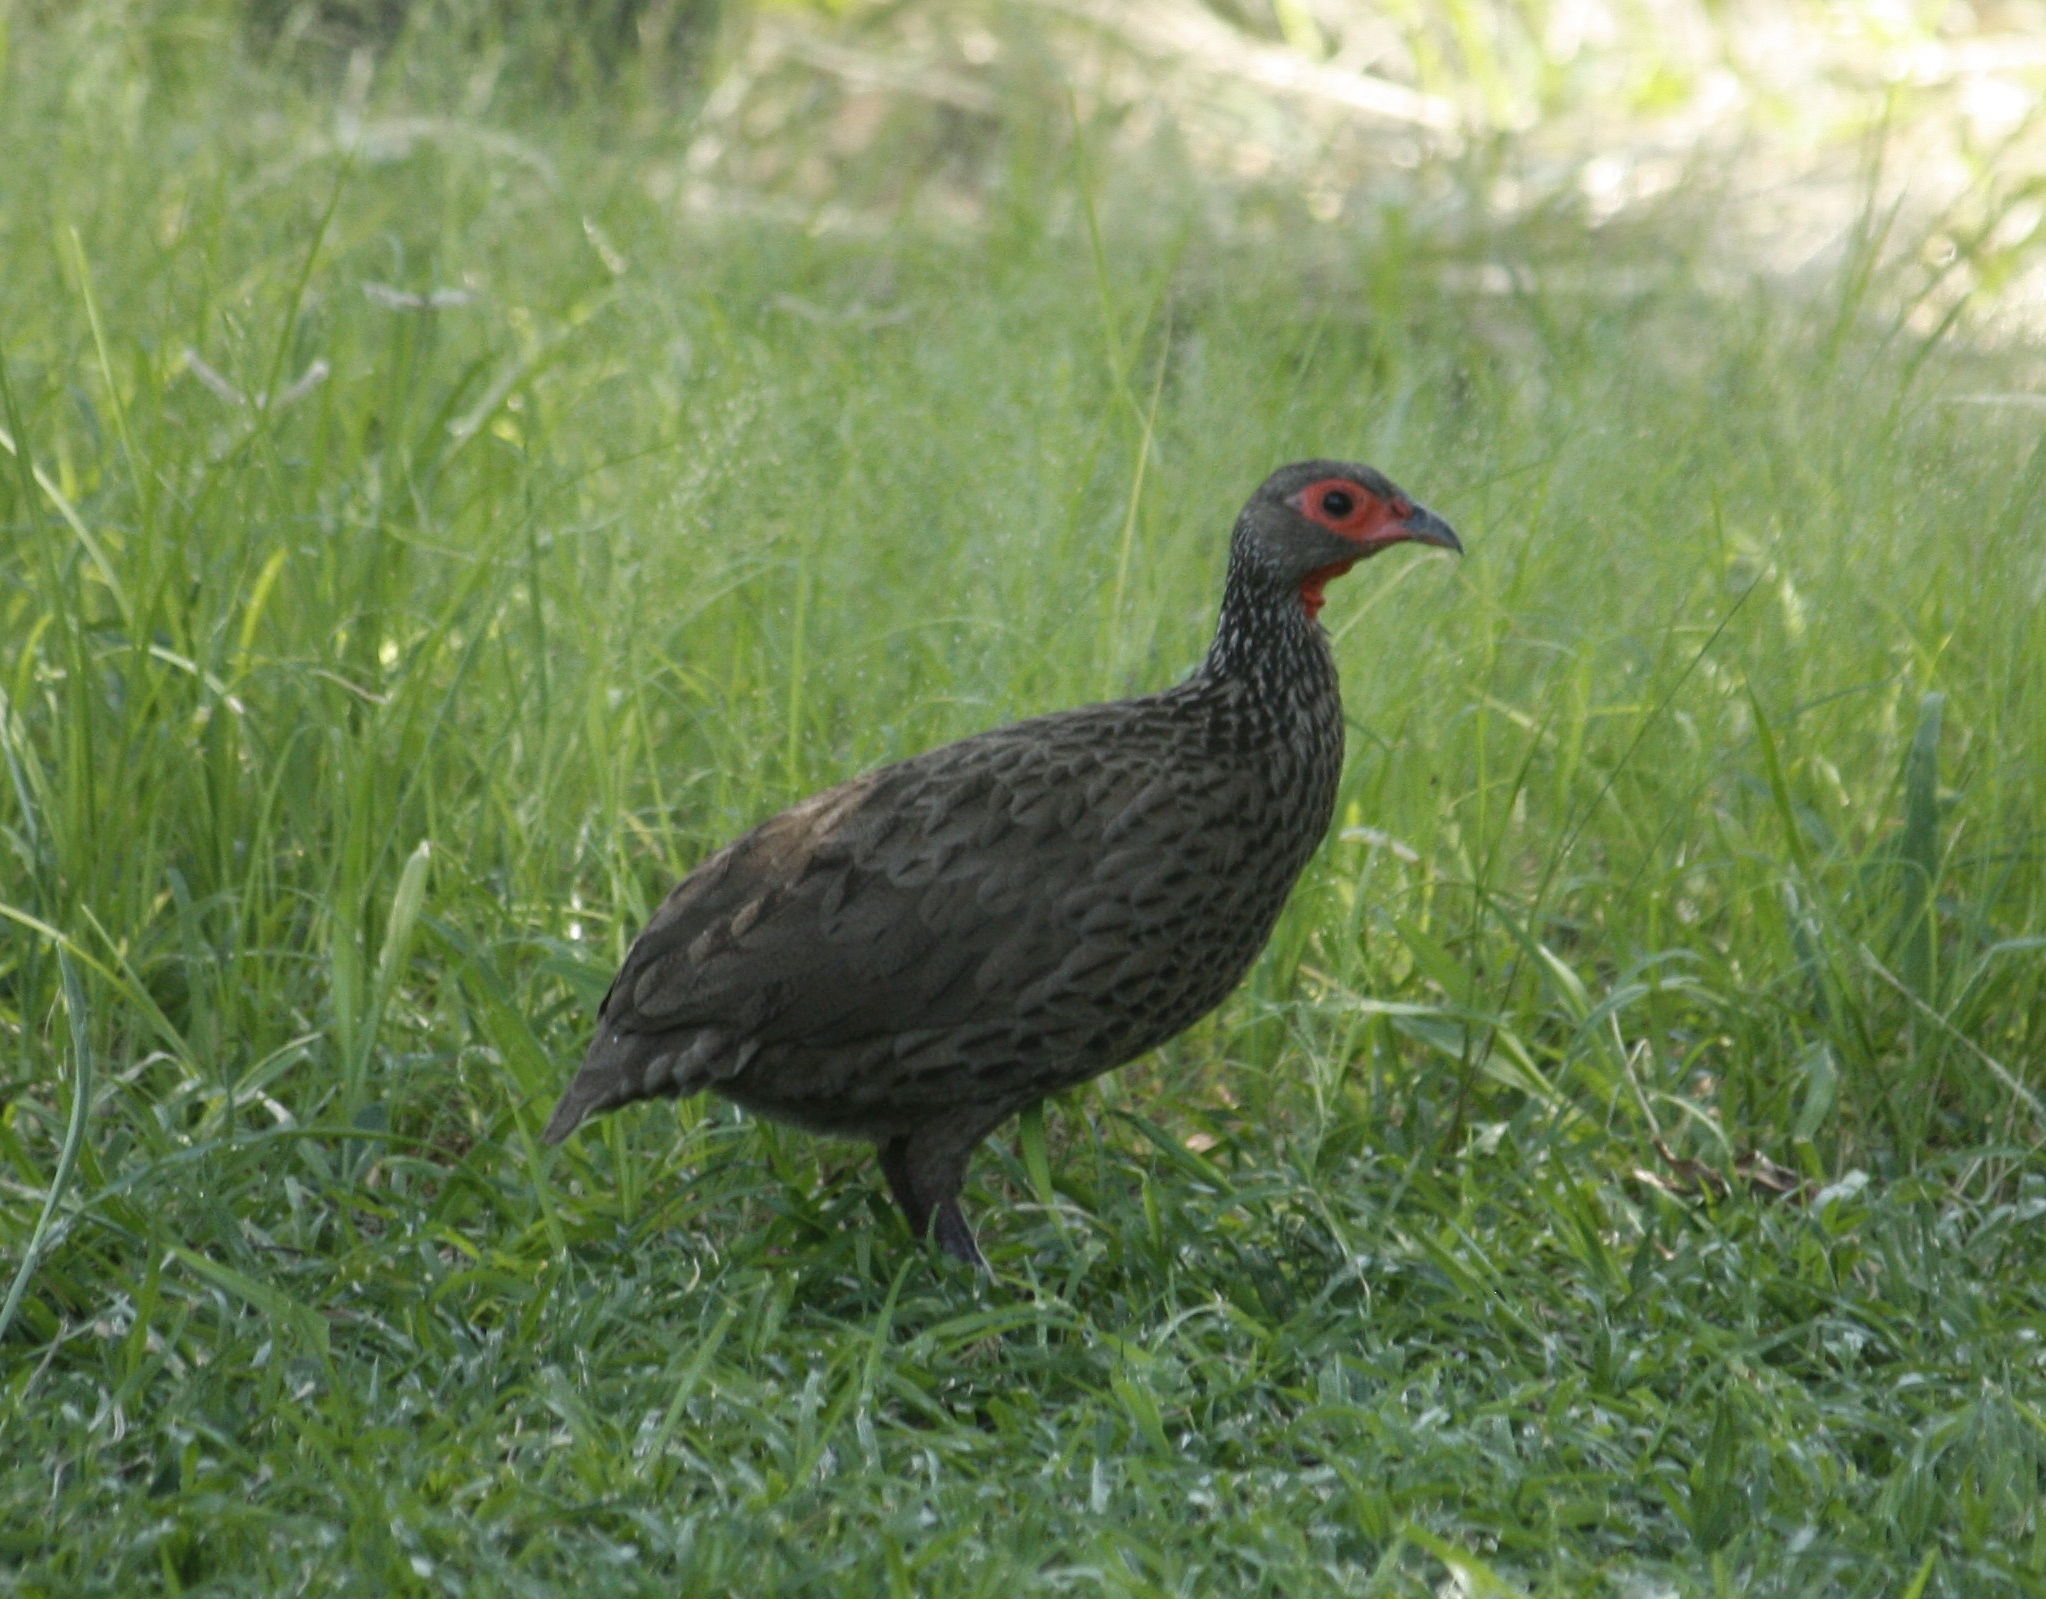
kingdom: Animalia
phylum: Chordata
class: Aves
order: Galliformes
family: Phasianidae
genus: Pternistis
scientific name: Pternistis swainsonii
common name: Swainson's spurfowl
